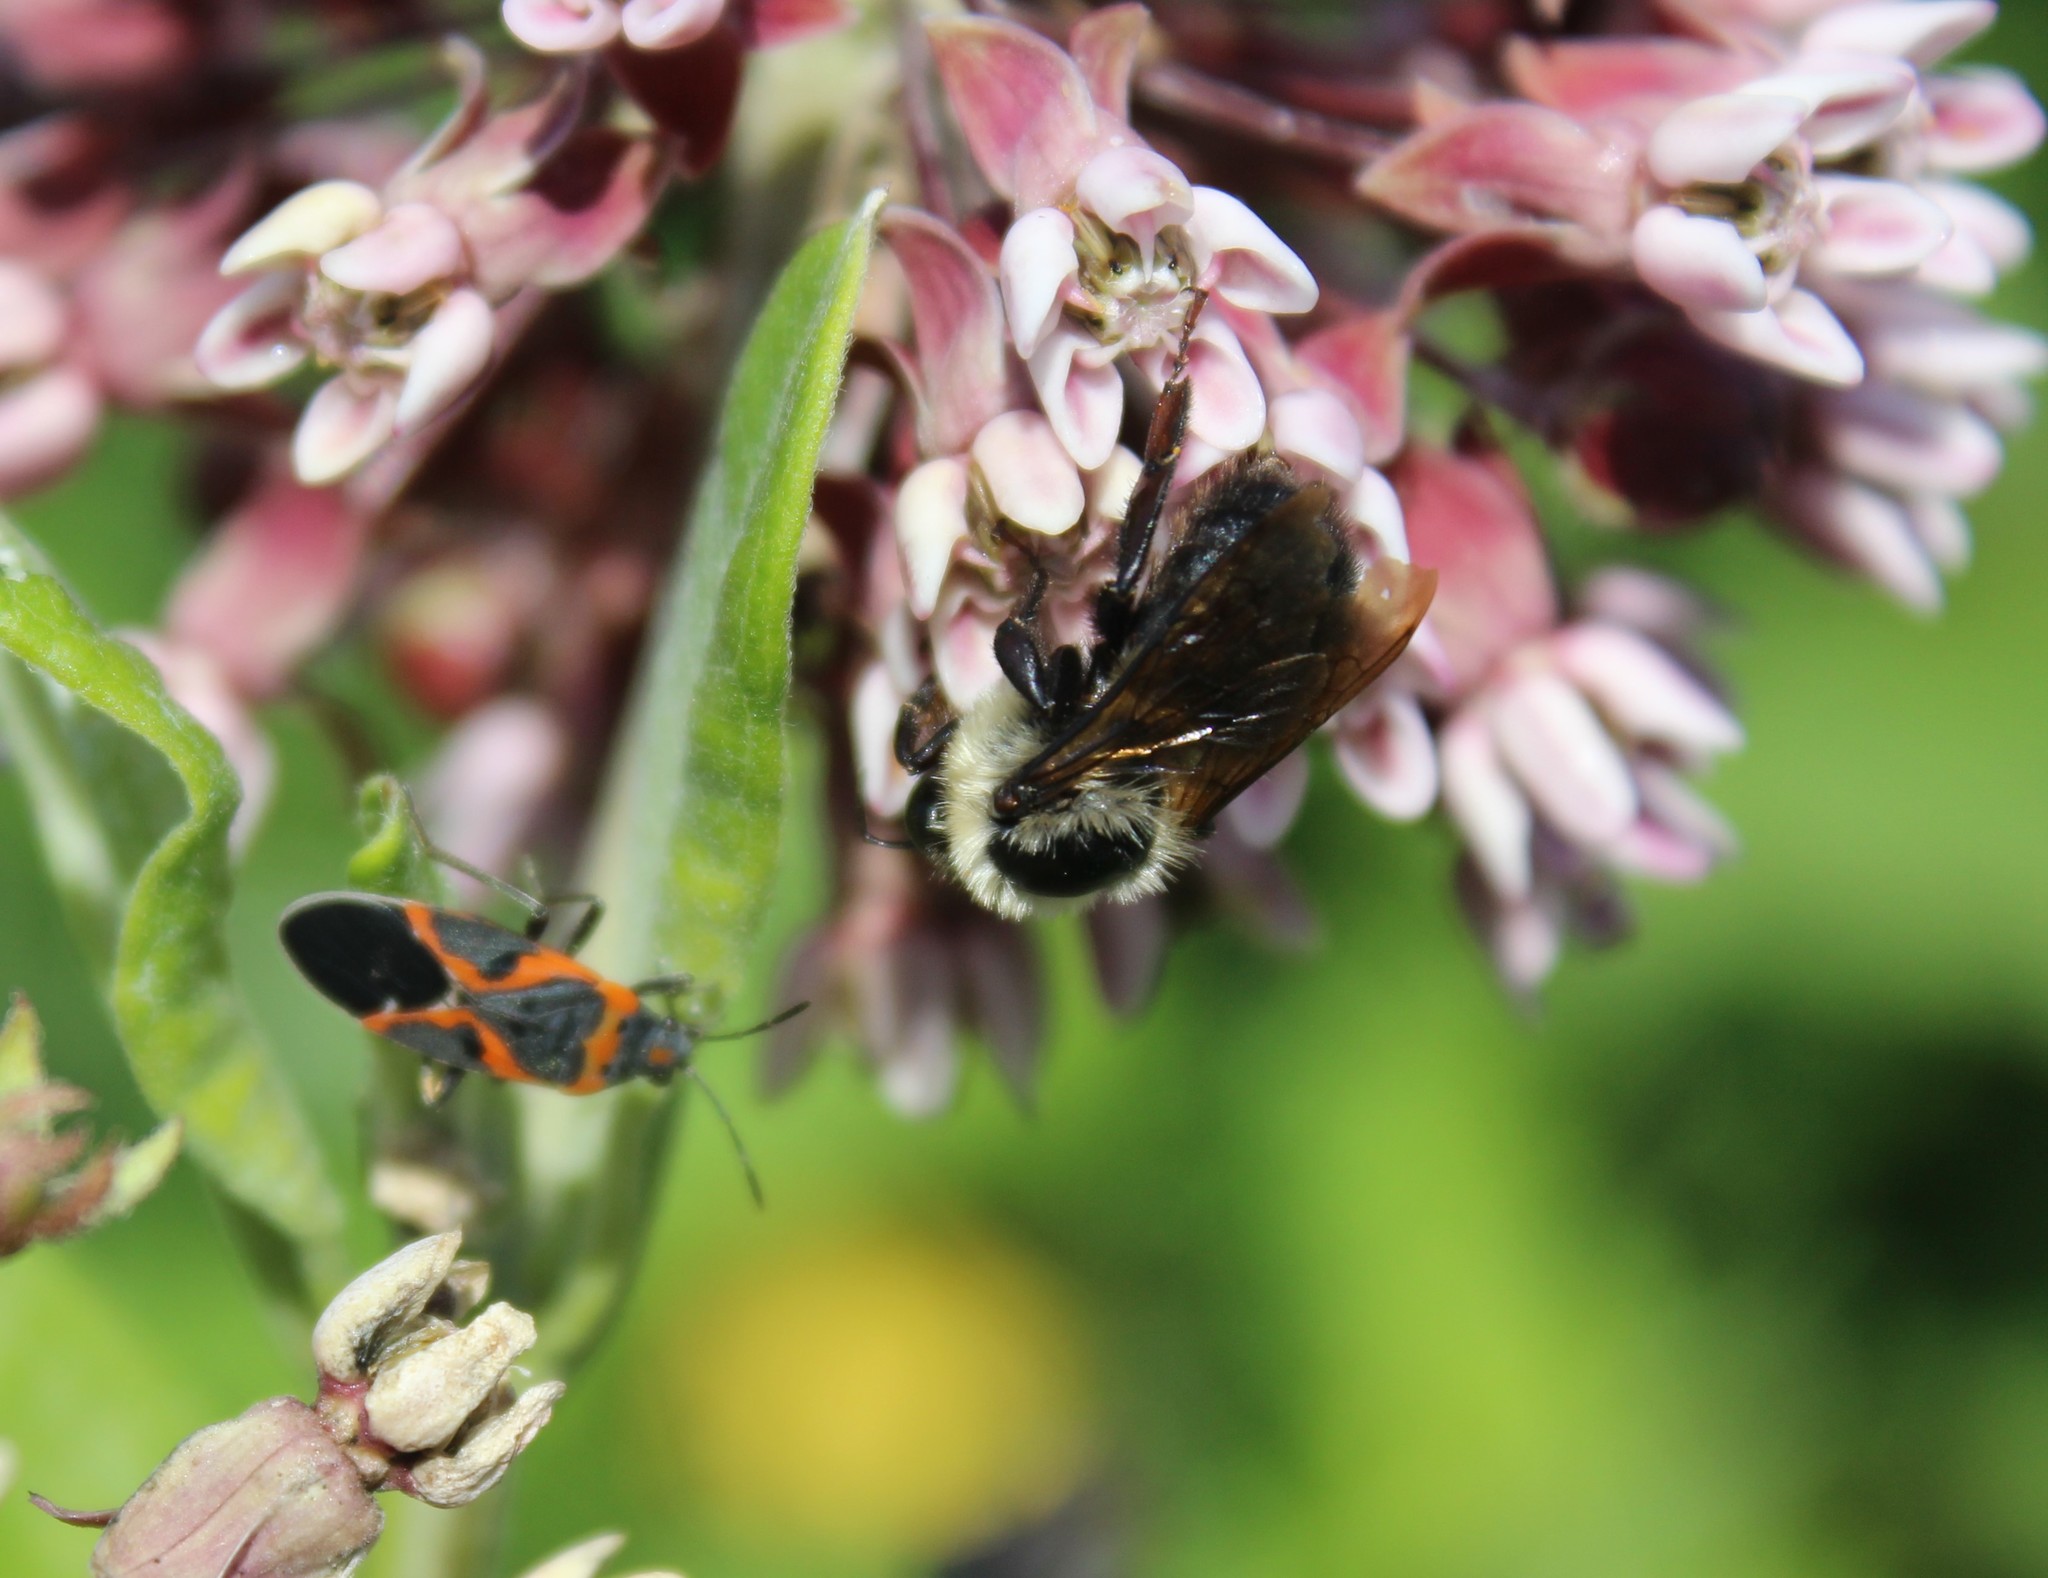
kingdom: Animalia
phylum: Arthropoda
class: Insecta
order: Hemiptera
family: Lygaeidae
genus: Lygaeus
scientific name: Lygaeus kalmii
